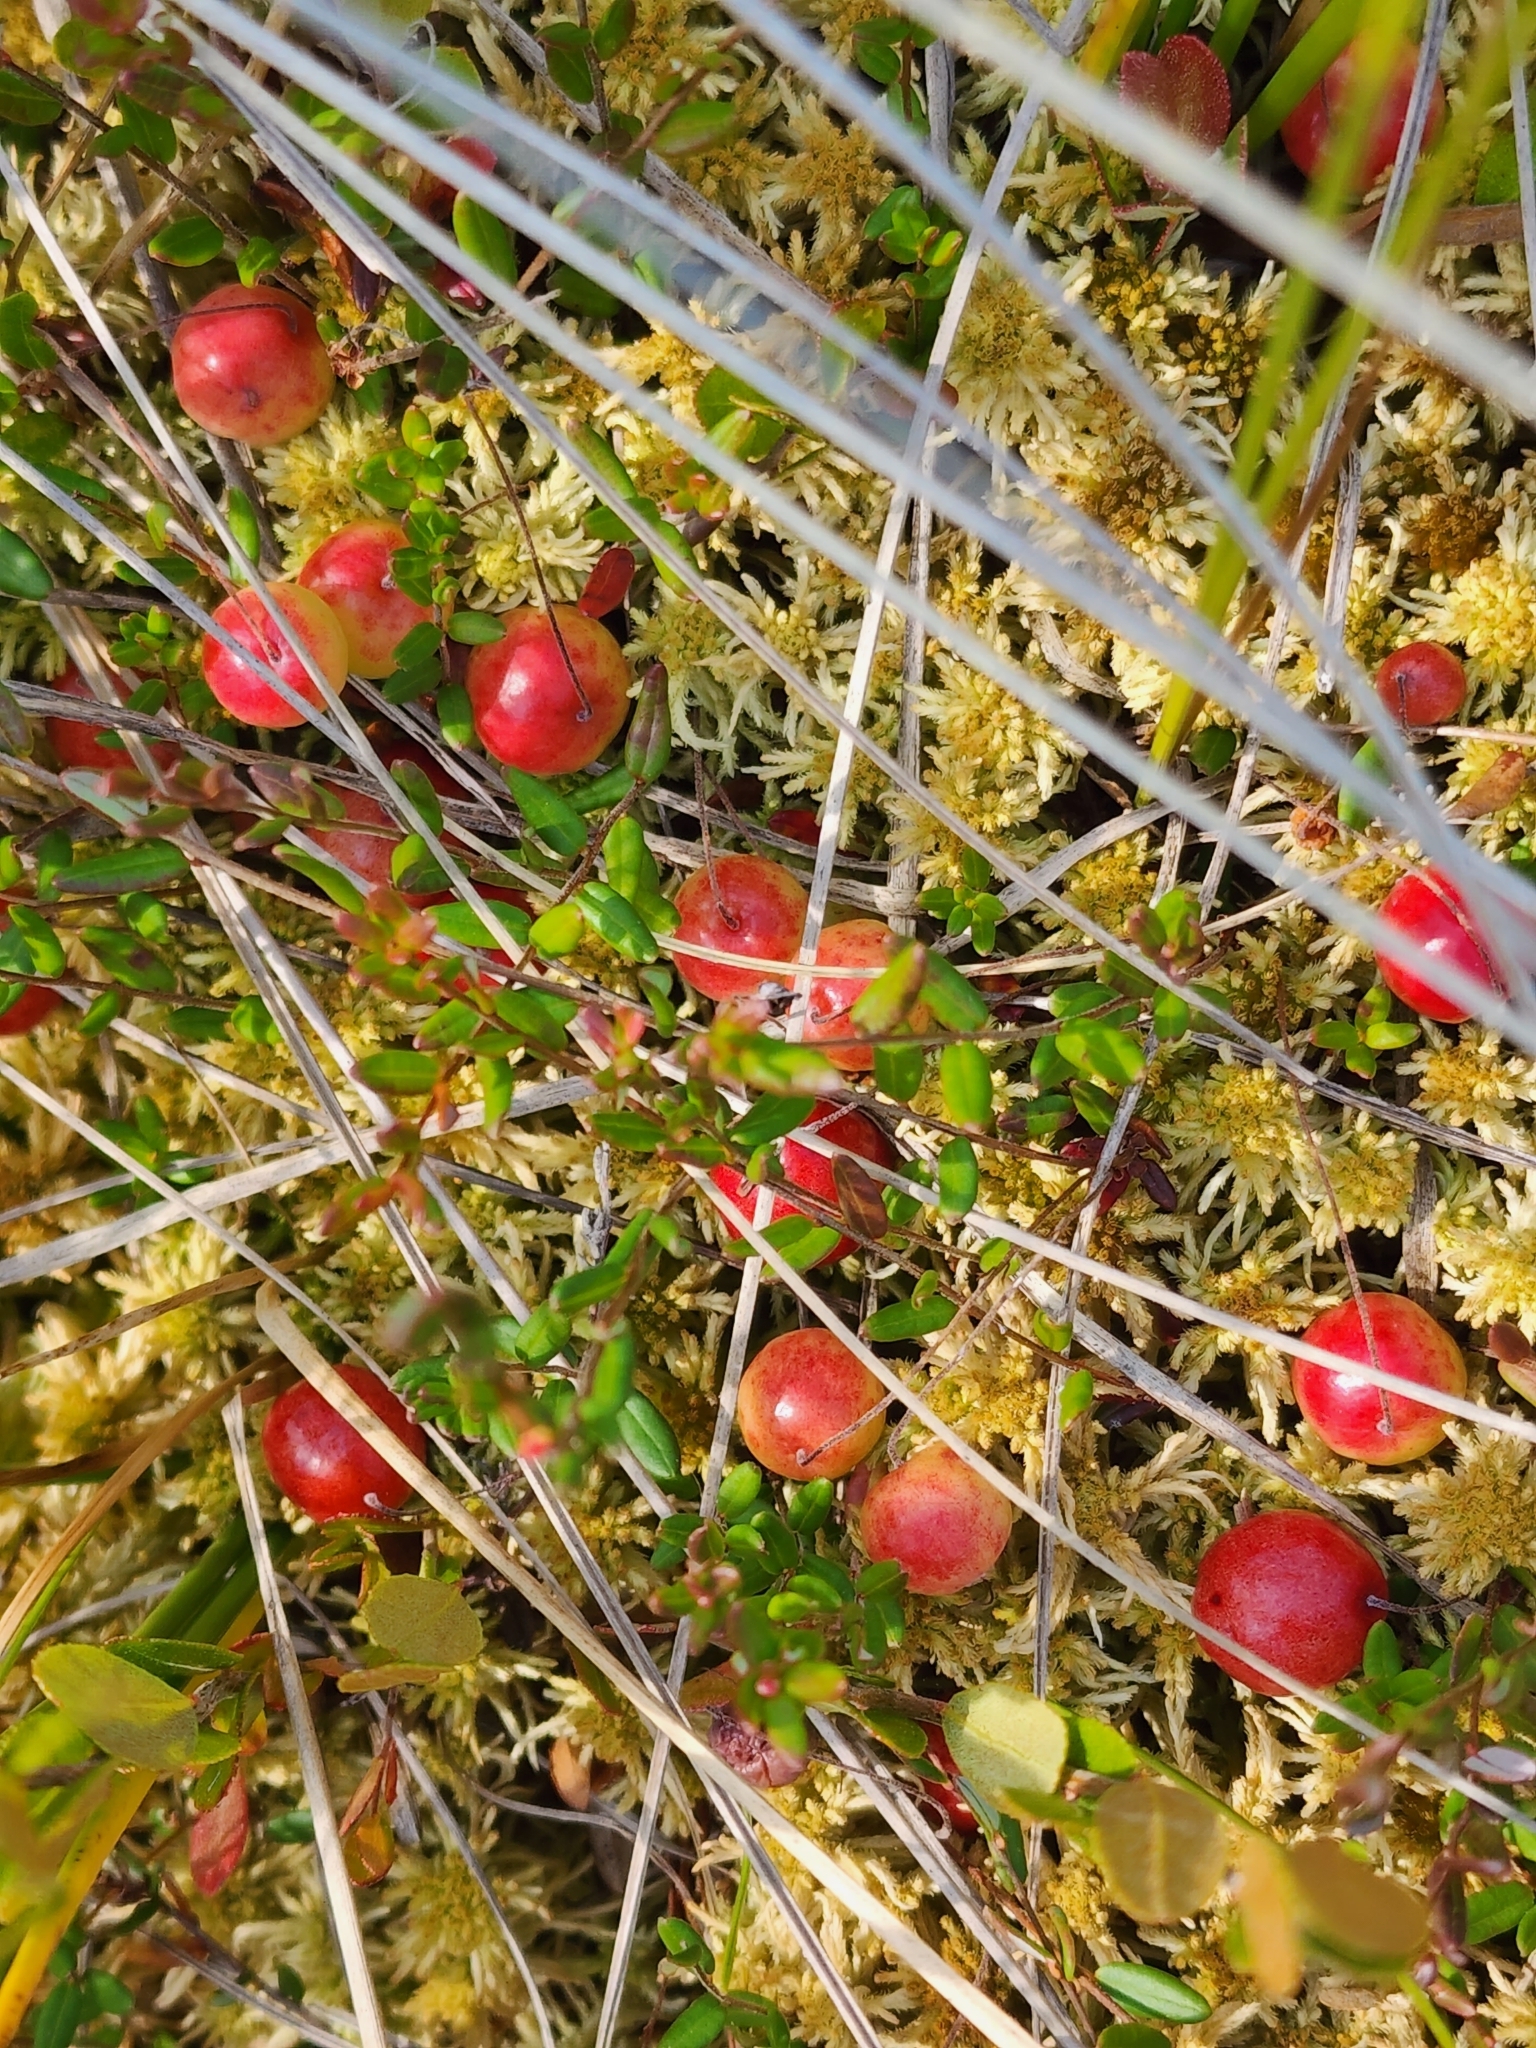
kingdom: Plantae
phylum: Tracheophyta
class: Magnoliopsida
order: Ericales
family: Ericaceae
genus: Vaccinium
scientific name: Vaccinium oxycoccos
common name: Cranberry
